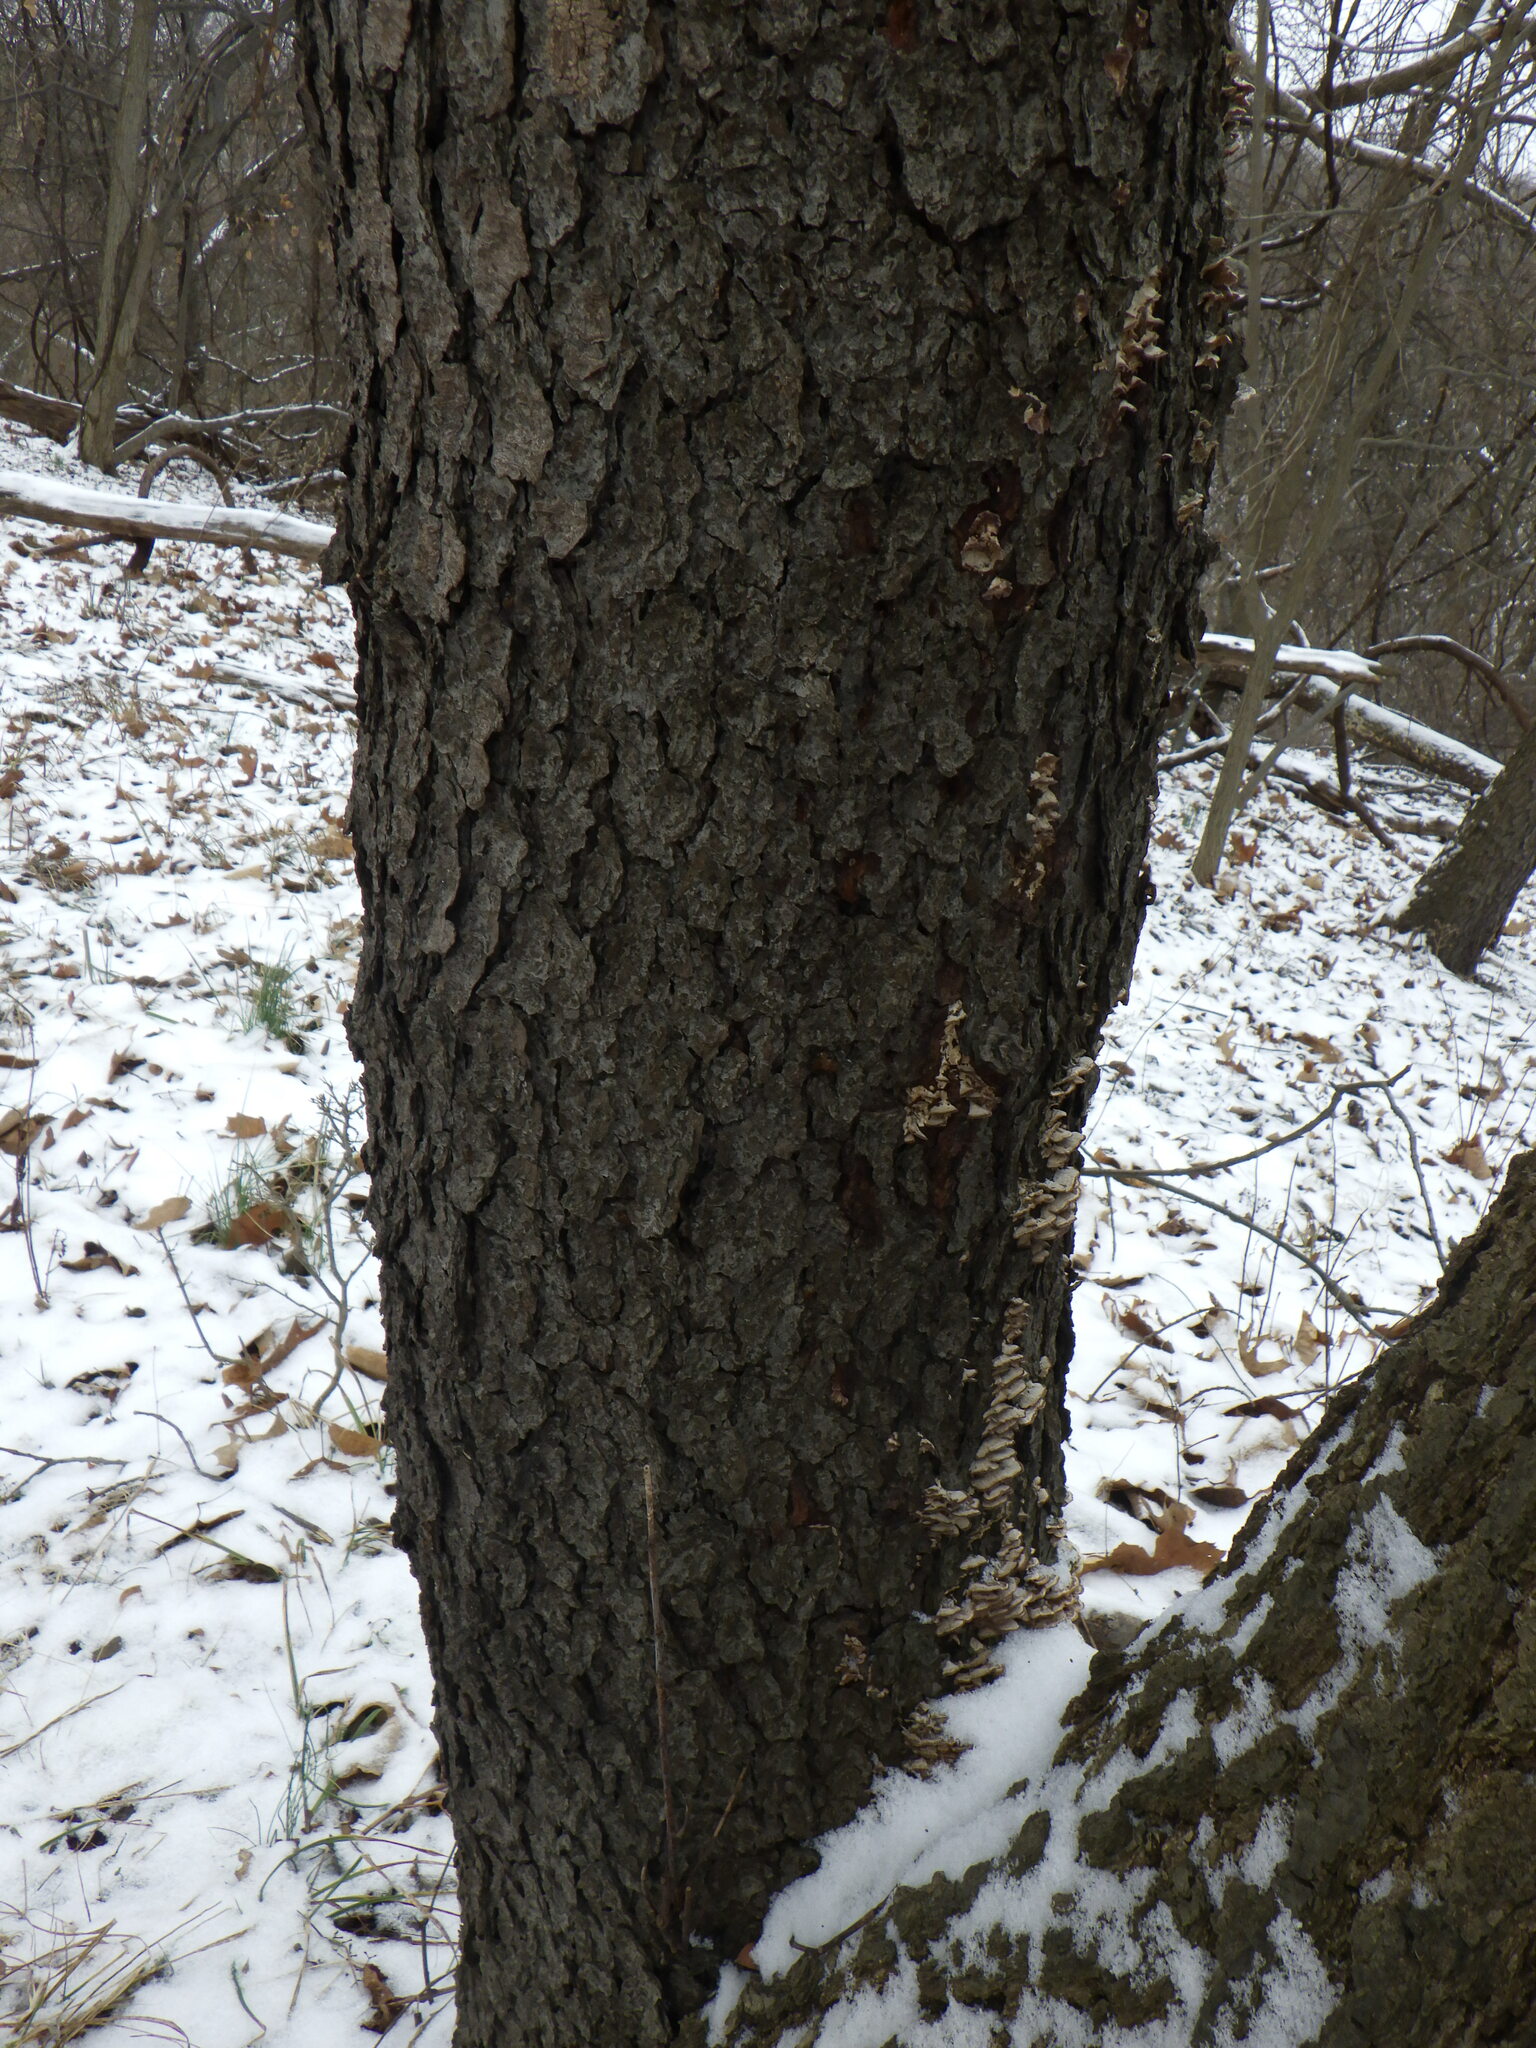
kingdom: Fungi
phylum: Basidiomycota
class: Agaricomycetes
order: Hymenochaetales
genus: Trichaptum
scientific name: Trichaptum biforme
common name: Violet-toothed polypore
